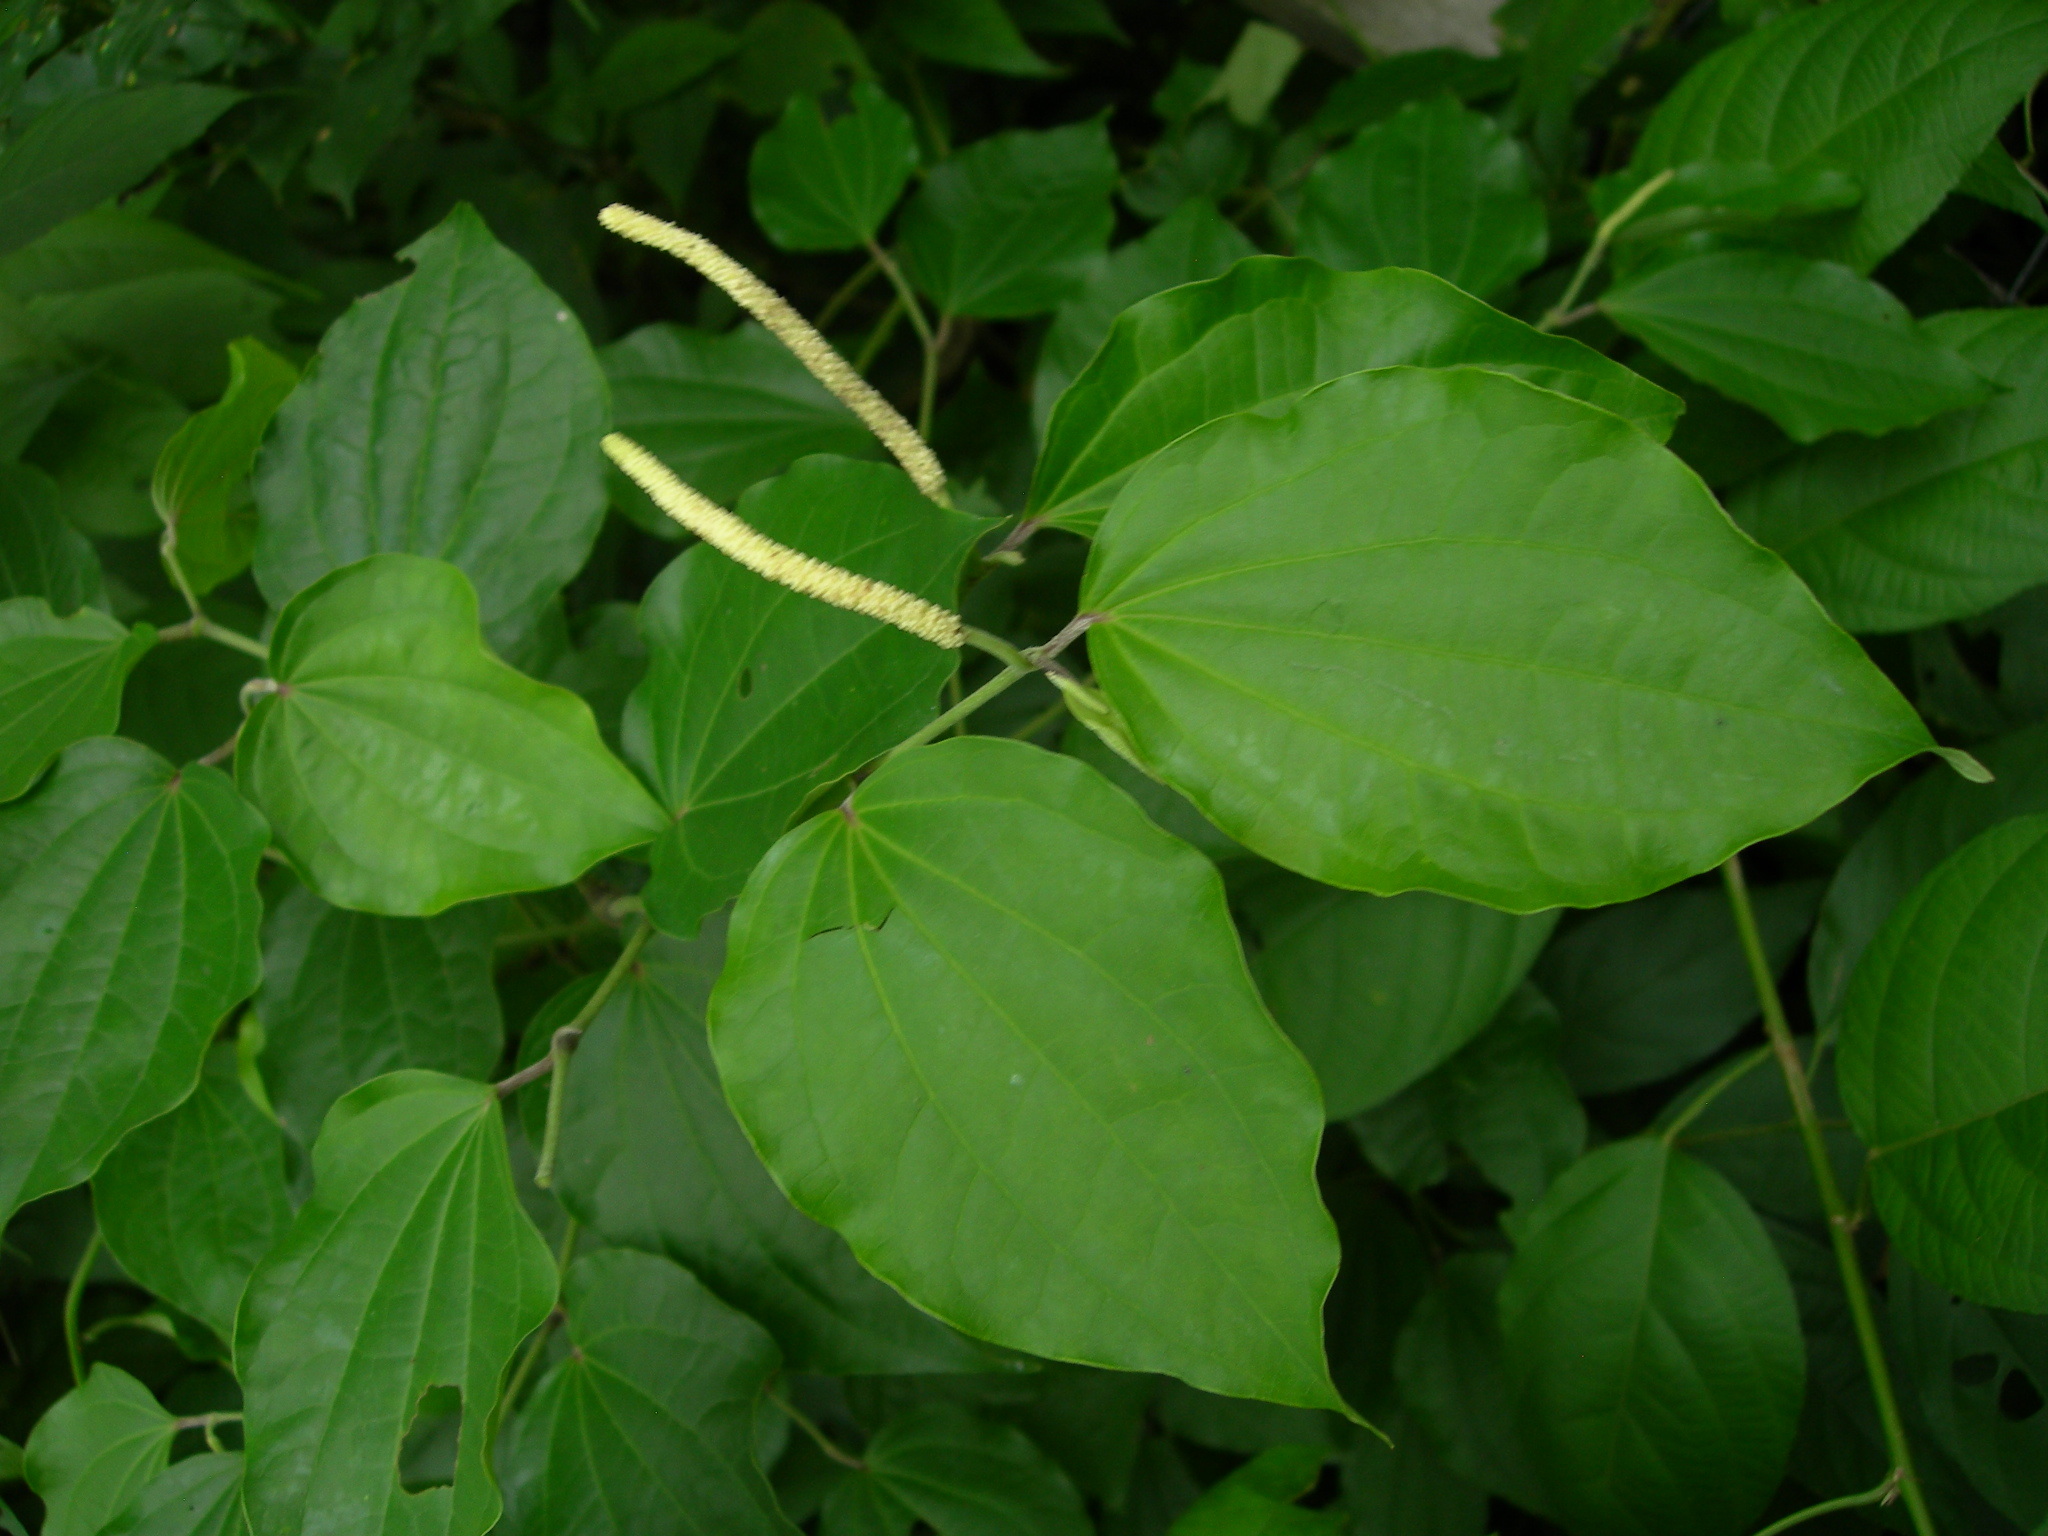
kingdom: Plantae
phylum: Tracheophyta
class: Magnoliopsida
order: Piperales
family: Piperaceae
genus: Piper
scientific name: Piper amalago
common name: Pepper-elder
